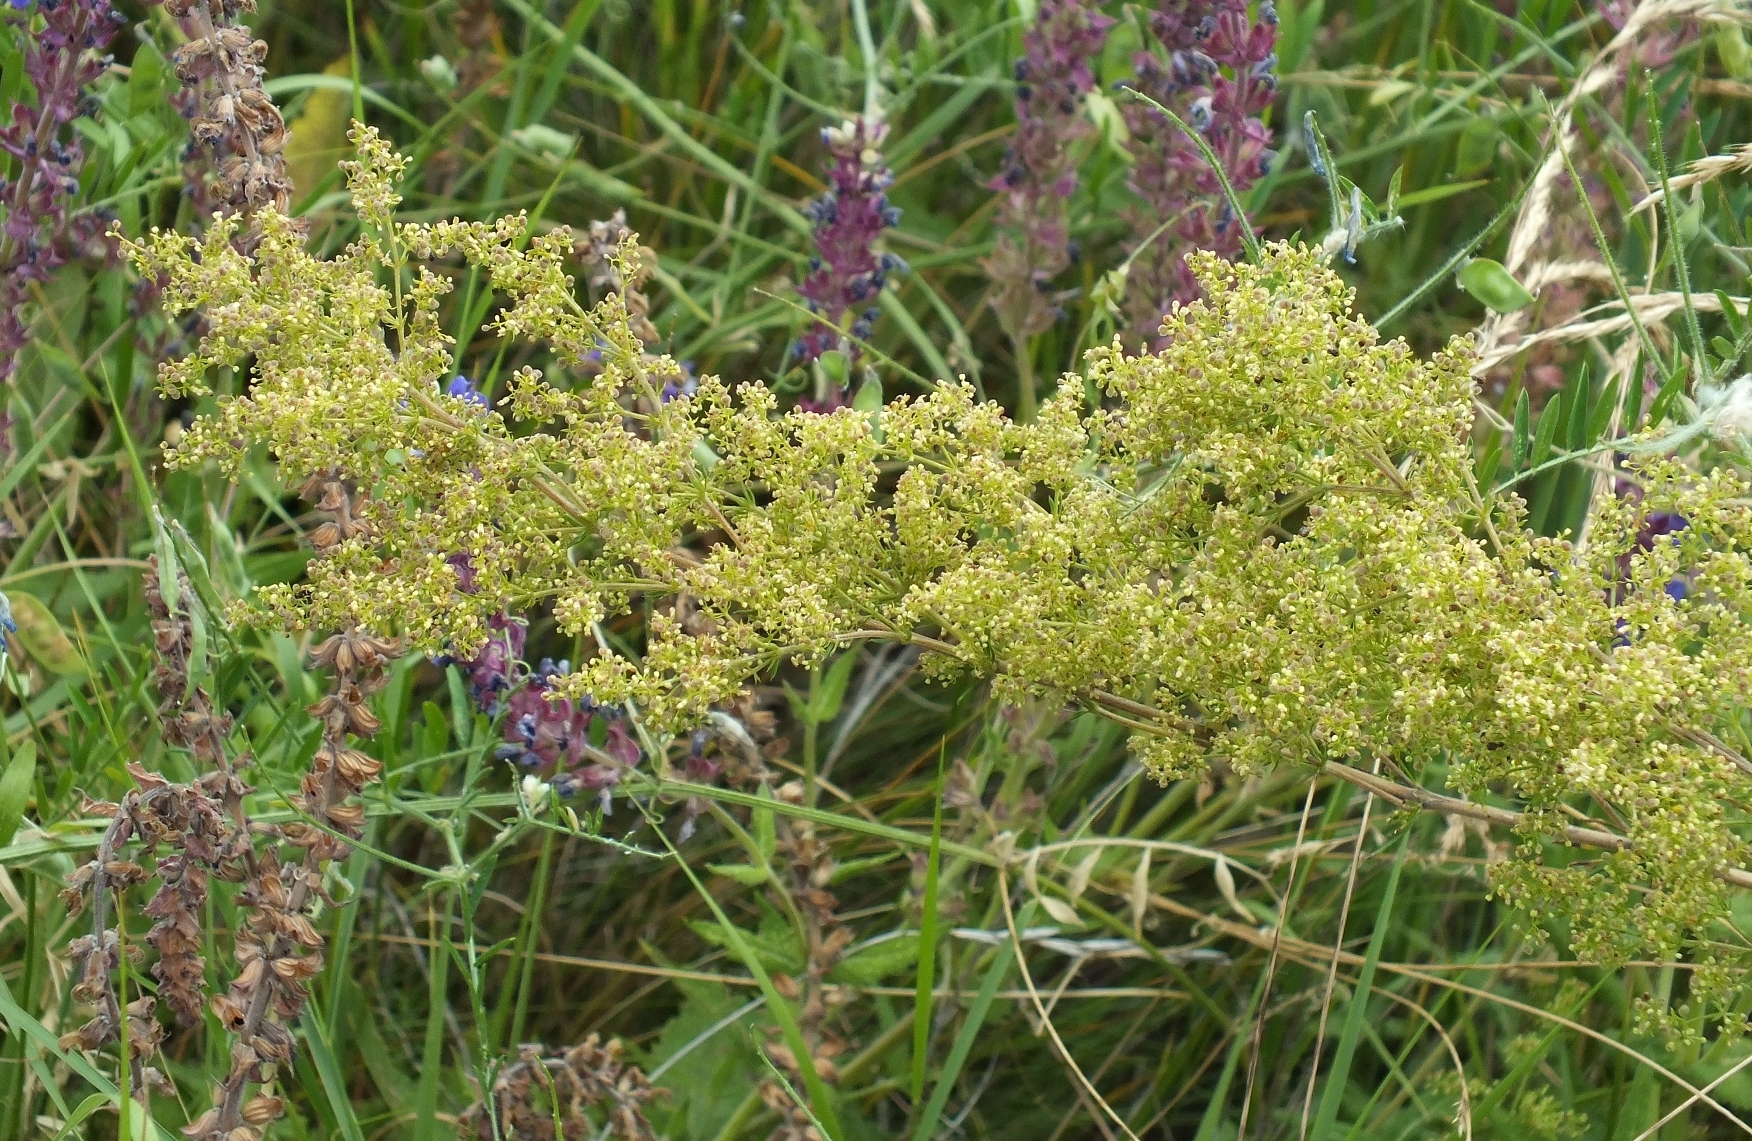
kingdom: Plantae
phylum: Tracheophyta
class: Magnoliopsida
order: Gentianales
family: Rubiaceae
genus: Galium
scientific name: Galium verum
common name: Lady's bedstraw
